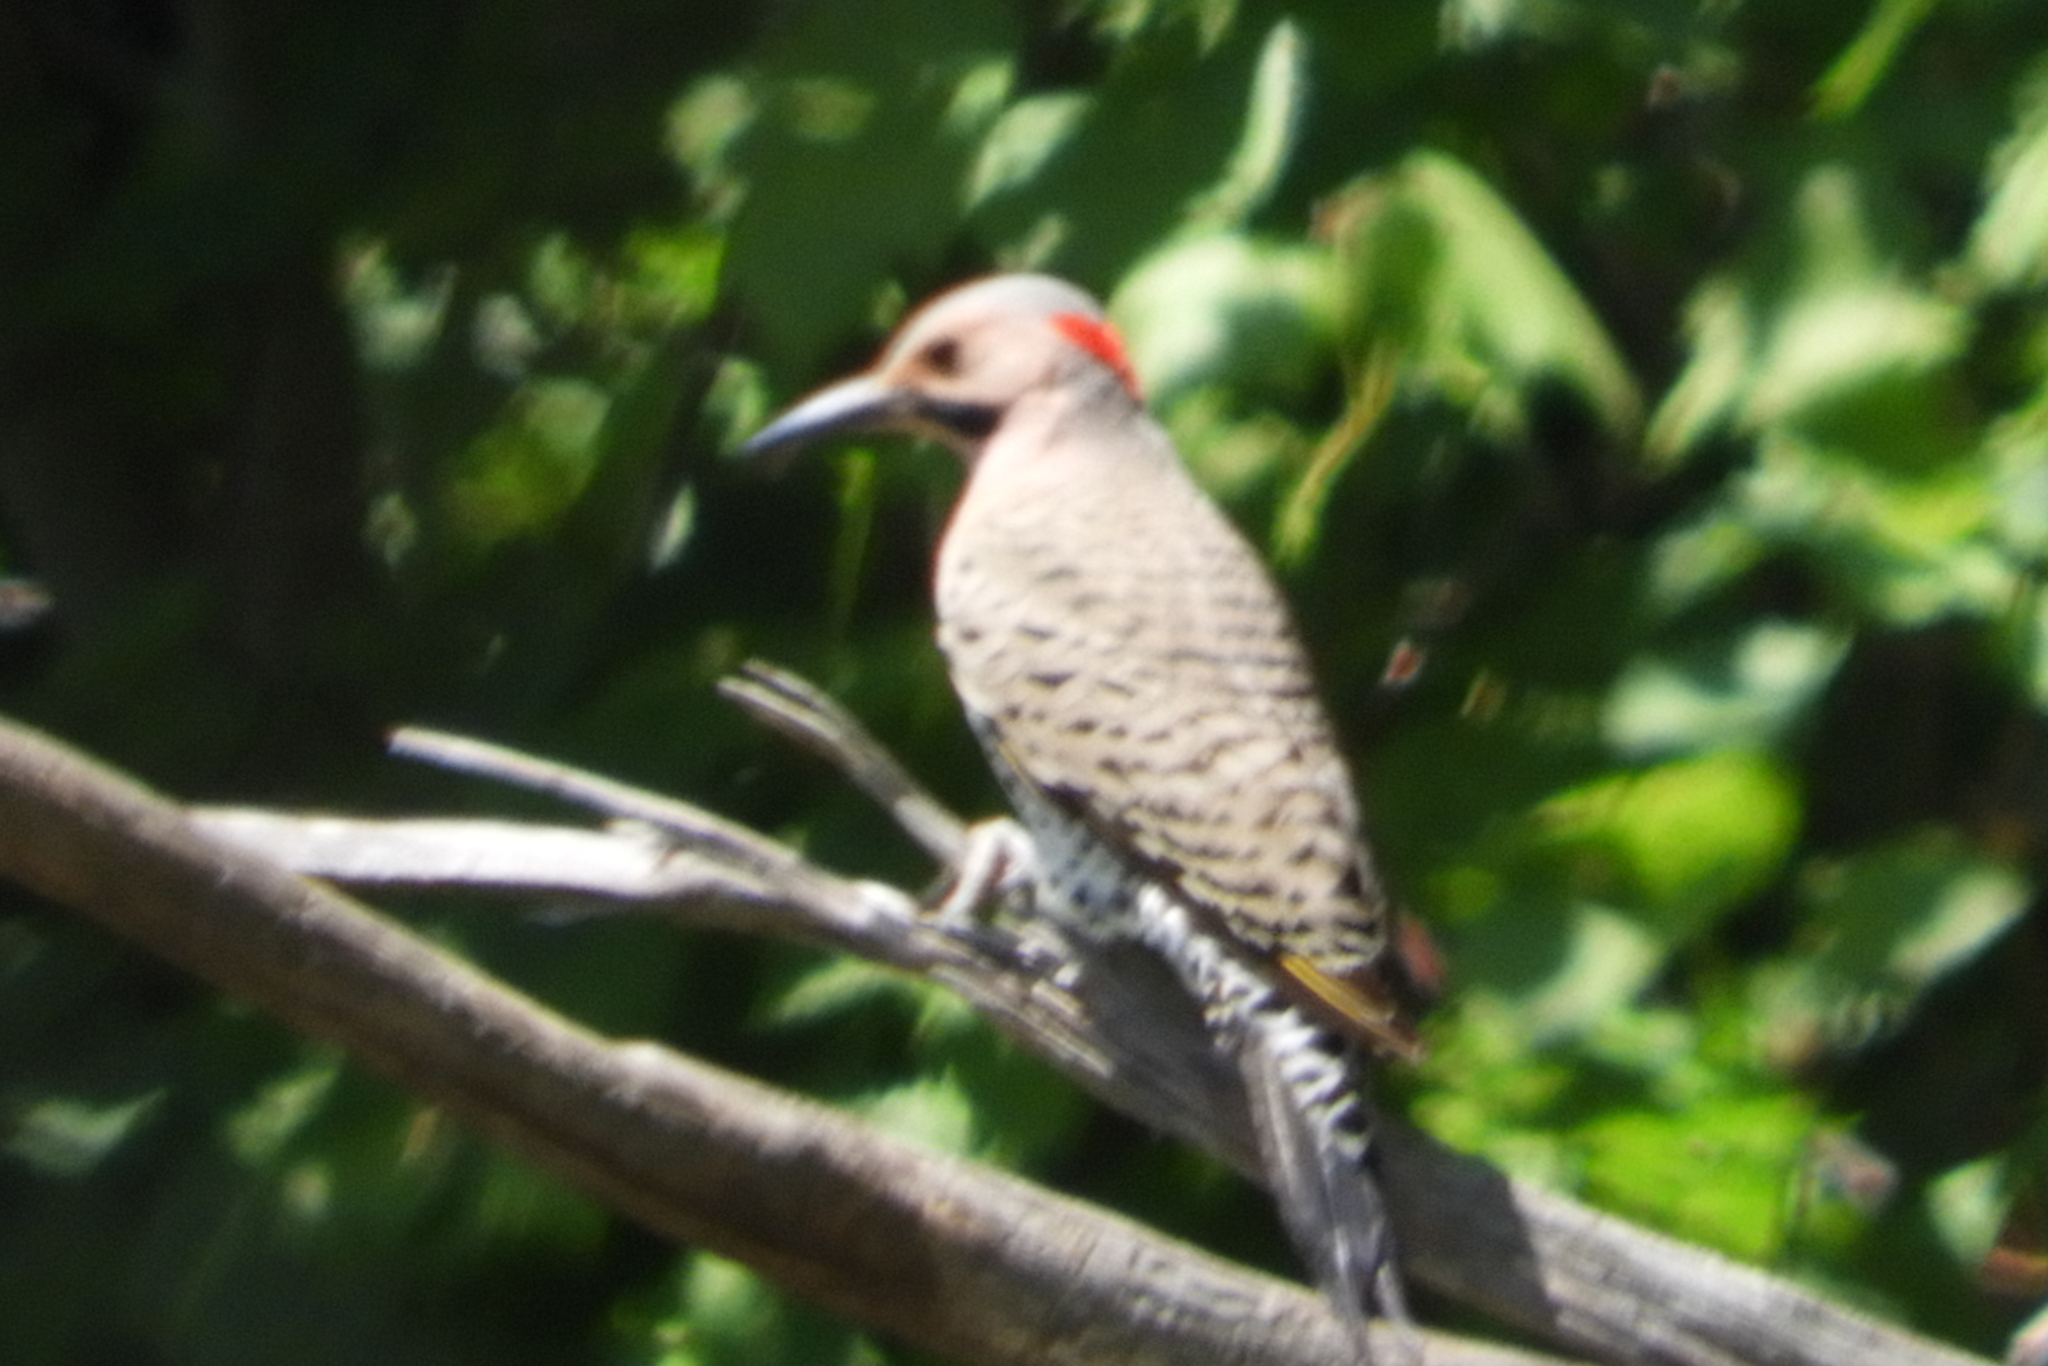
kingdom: Animalia
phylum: Chordata
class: Aves
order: Piciformes
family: Picidae
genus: Colaptes
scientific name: Colaptes auratus
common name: Northern flicker
